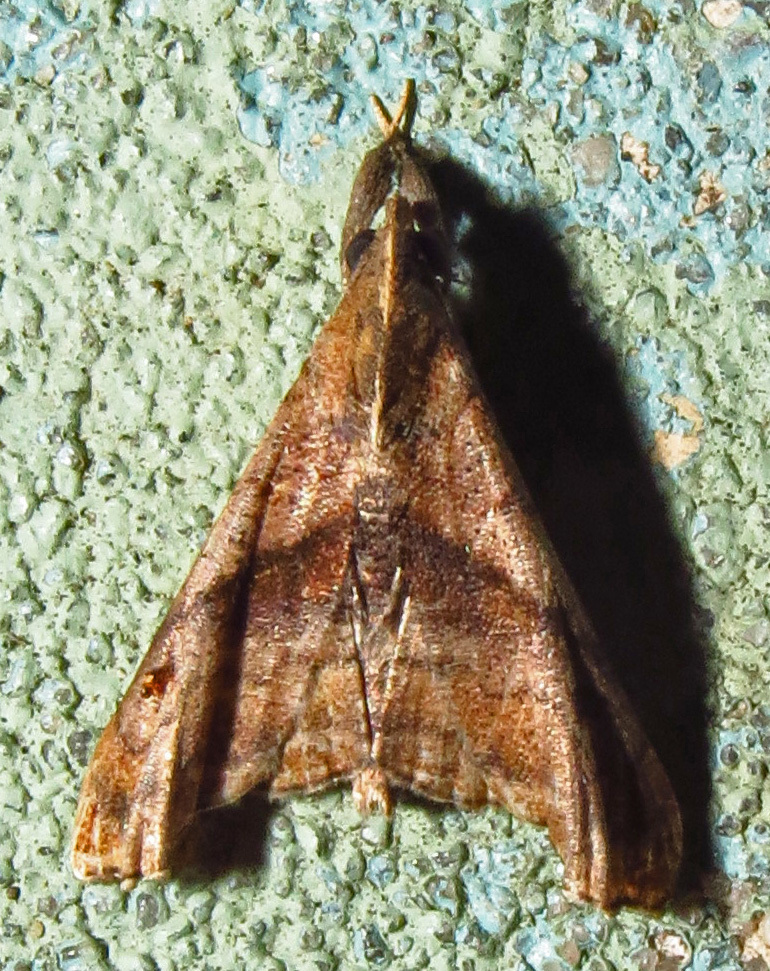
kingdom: Animalia
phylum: Arthropoda
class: Insecta
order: Lepidoptera
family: Erebidae
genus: Palthis
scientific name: Palthis angulalis
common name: Dark-spotted palthis moth
